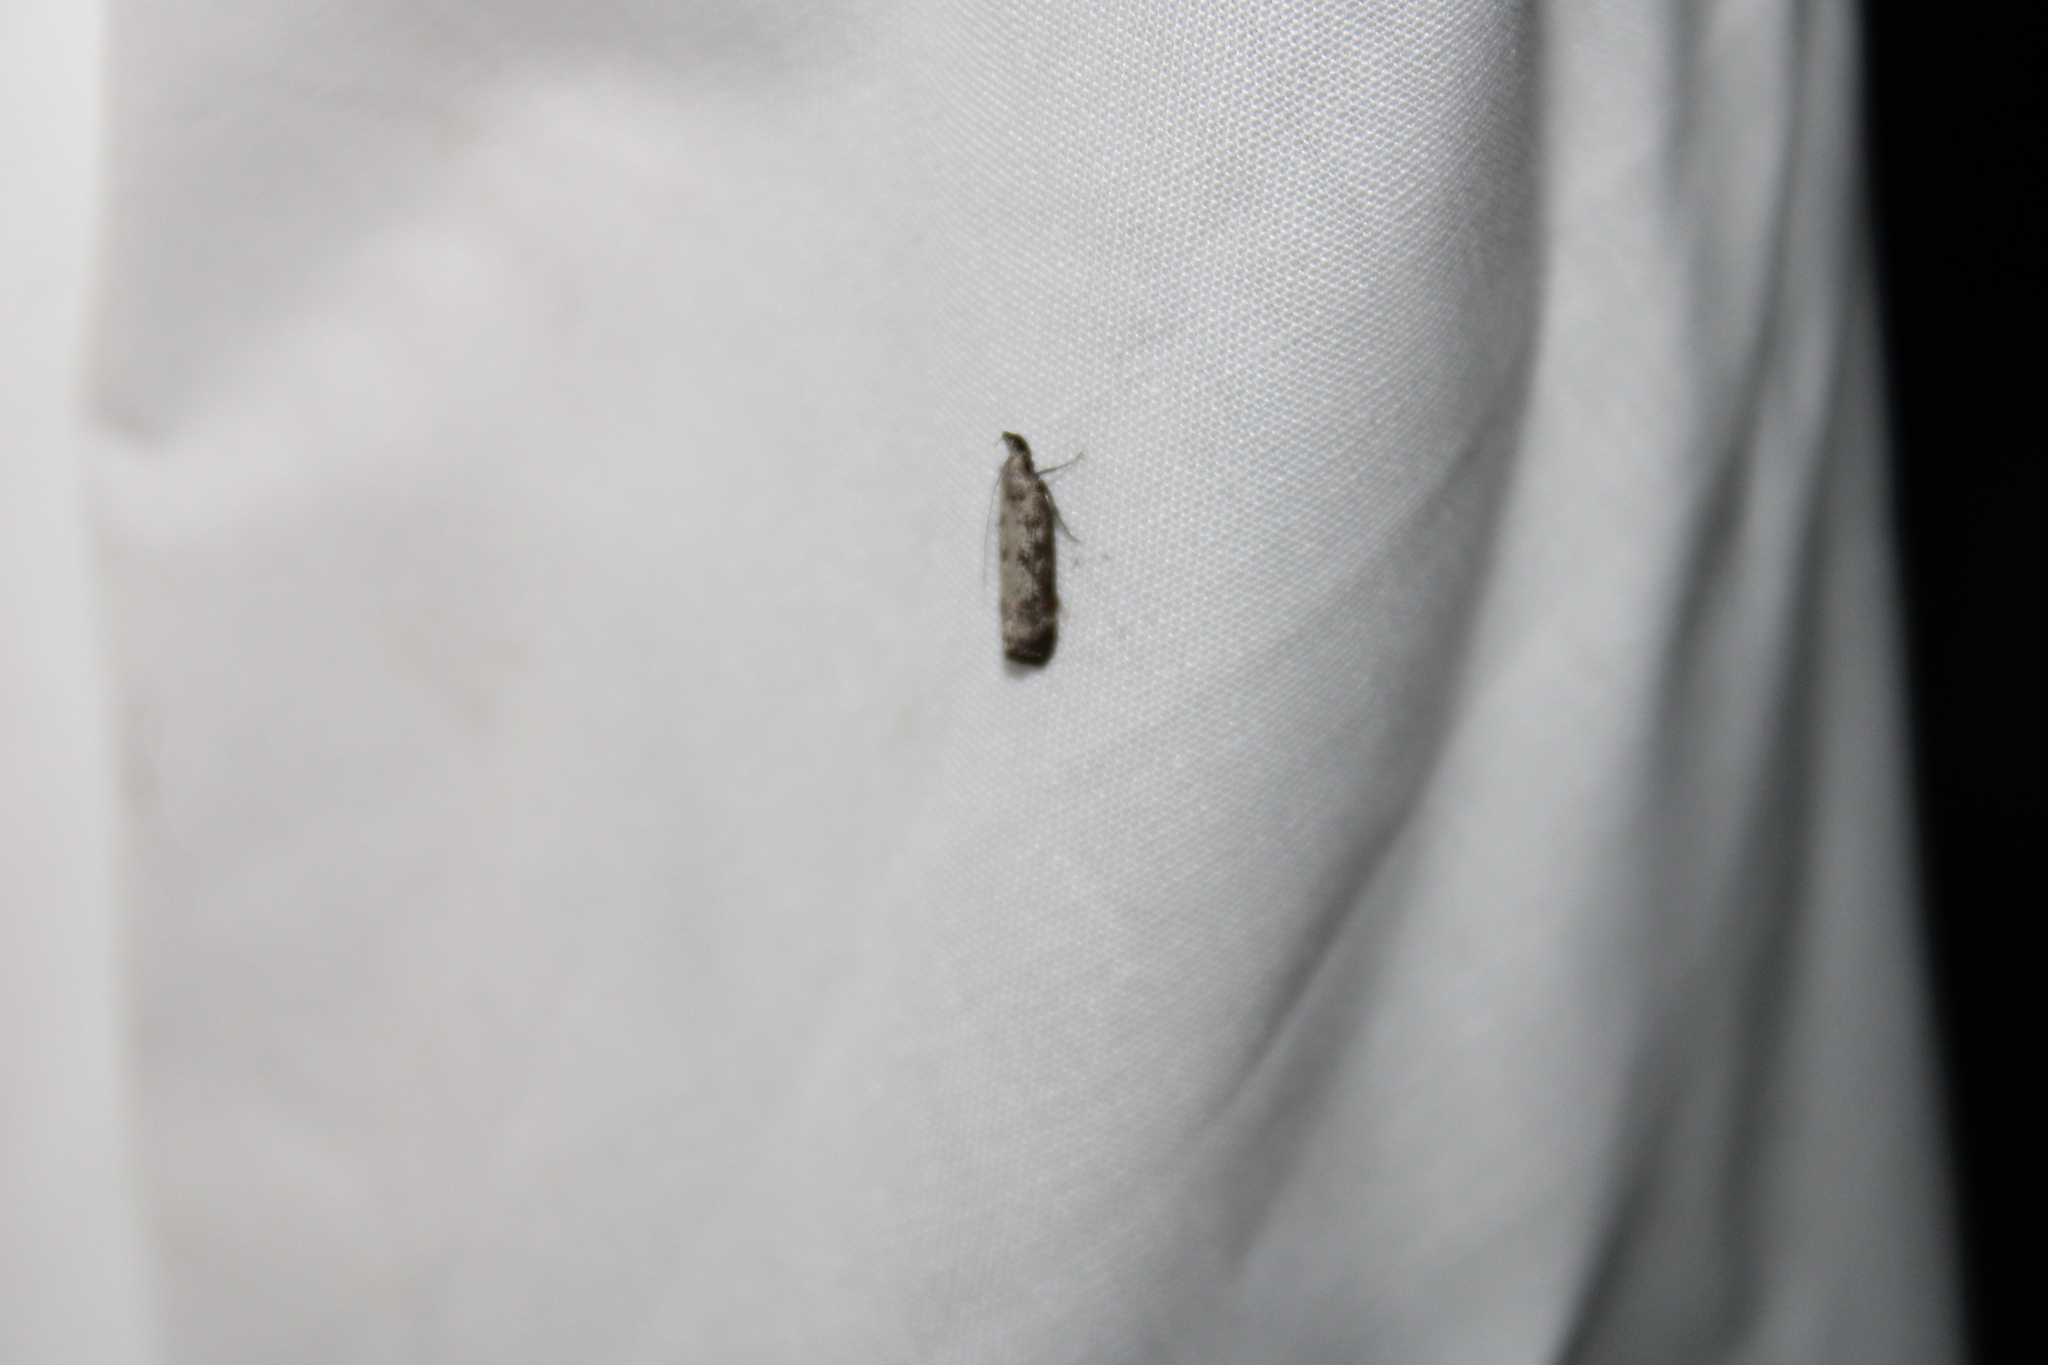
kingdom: Animalia
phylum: Arthropoda
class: Insecta
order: Lepidoptera
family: Gelechiidae
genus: Dichomeris
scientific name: Dichomeris inversella
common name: Inverse dichomeris moth
